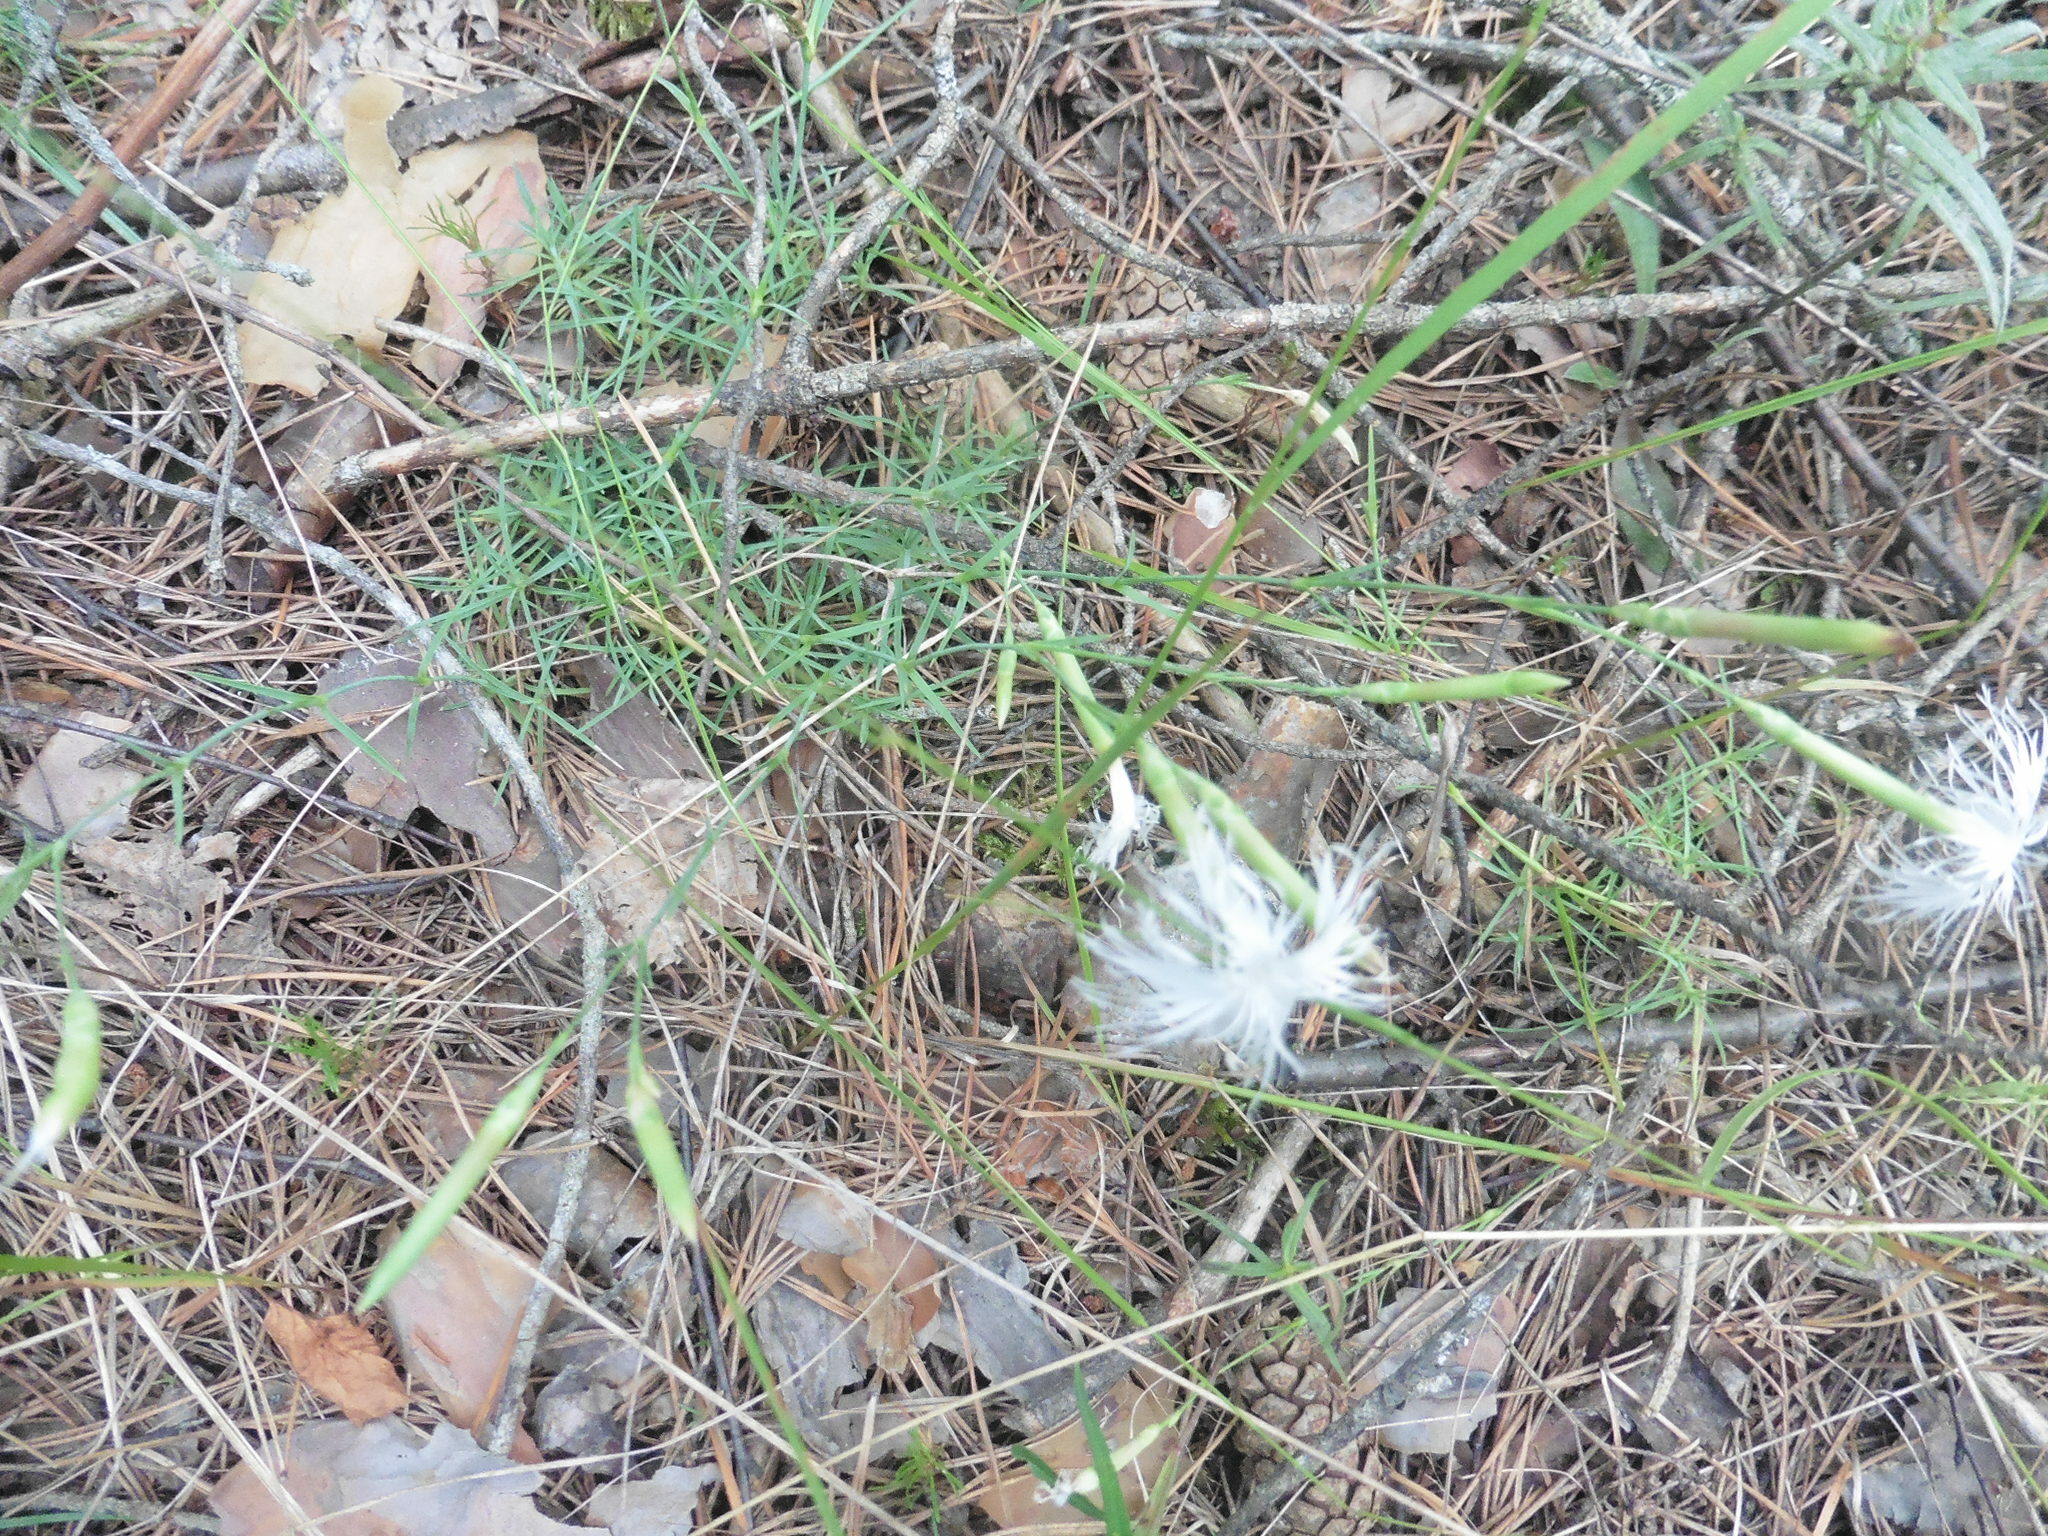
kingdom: Plantae
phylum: Tracheophyta
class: Magnoliopsida
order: Caryophyllales
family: Caryophyllaceae
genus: Dianthus
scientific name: Dianthus arenarius
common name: Stone pink
